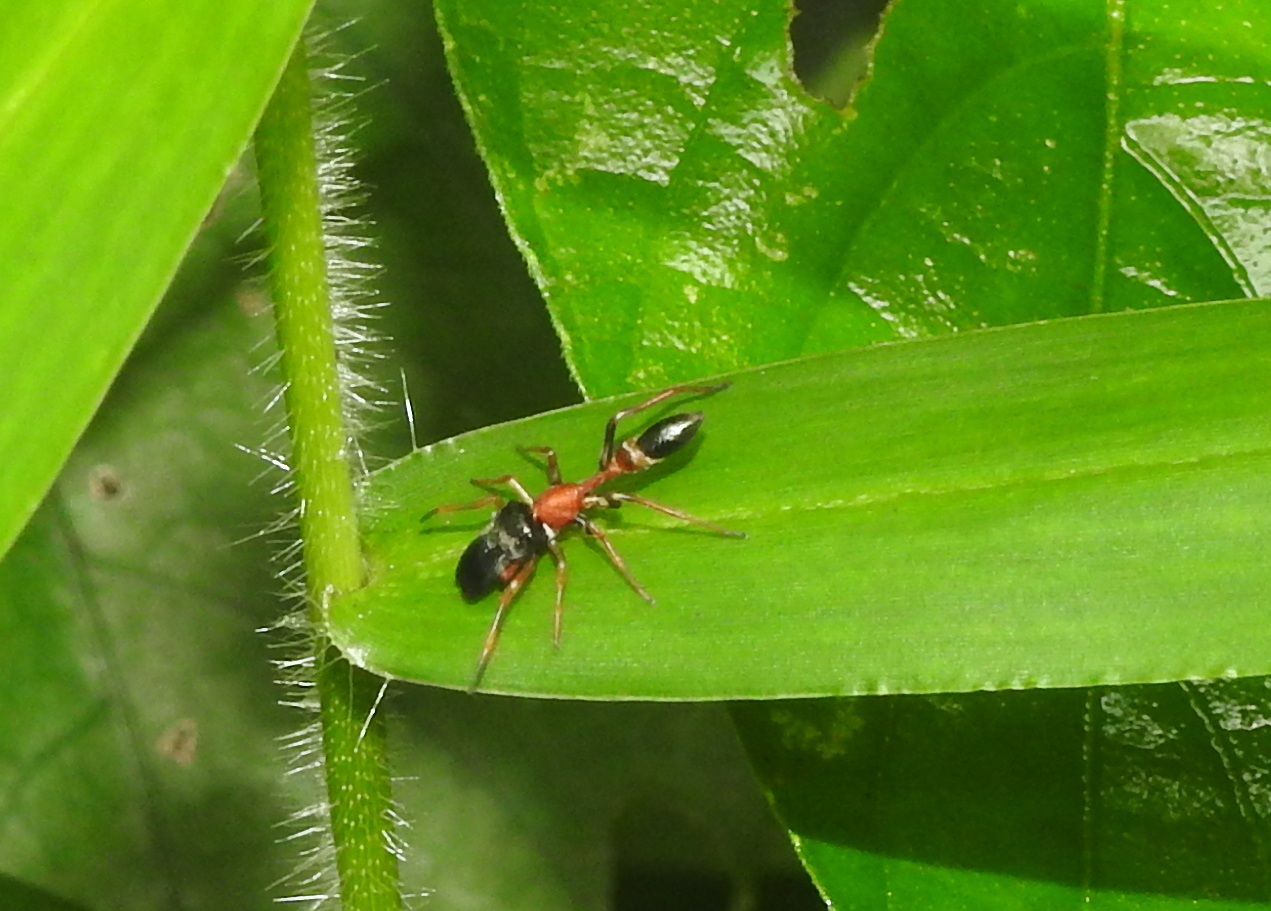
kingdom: Animalia
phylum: Arthropoda
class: Arachnida
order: Araneae
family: Salticidae
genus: Myrmarachne
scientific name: Myrmarachne melanocephala
